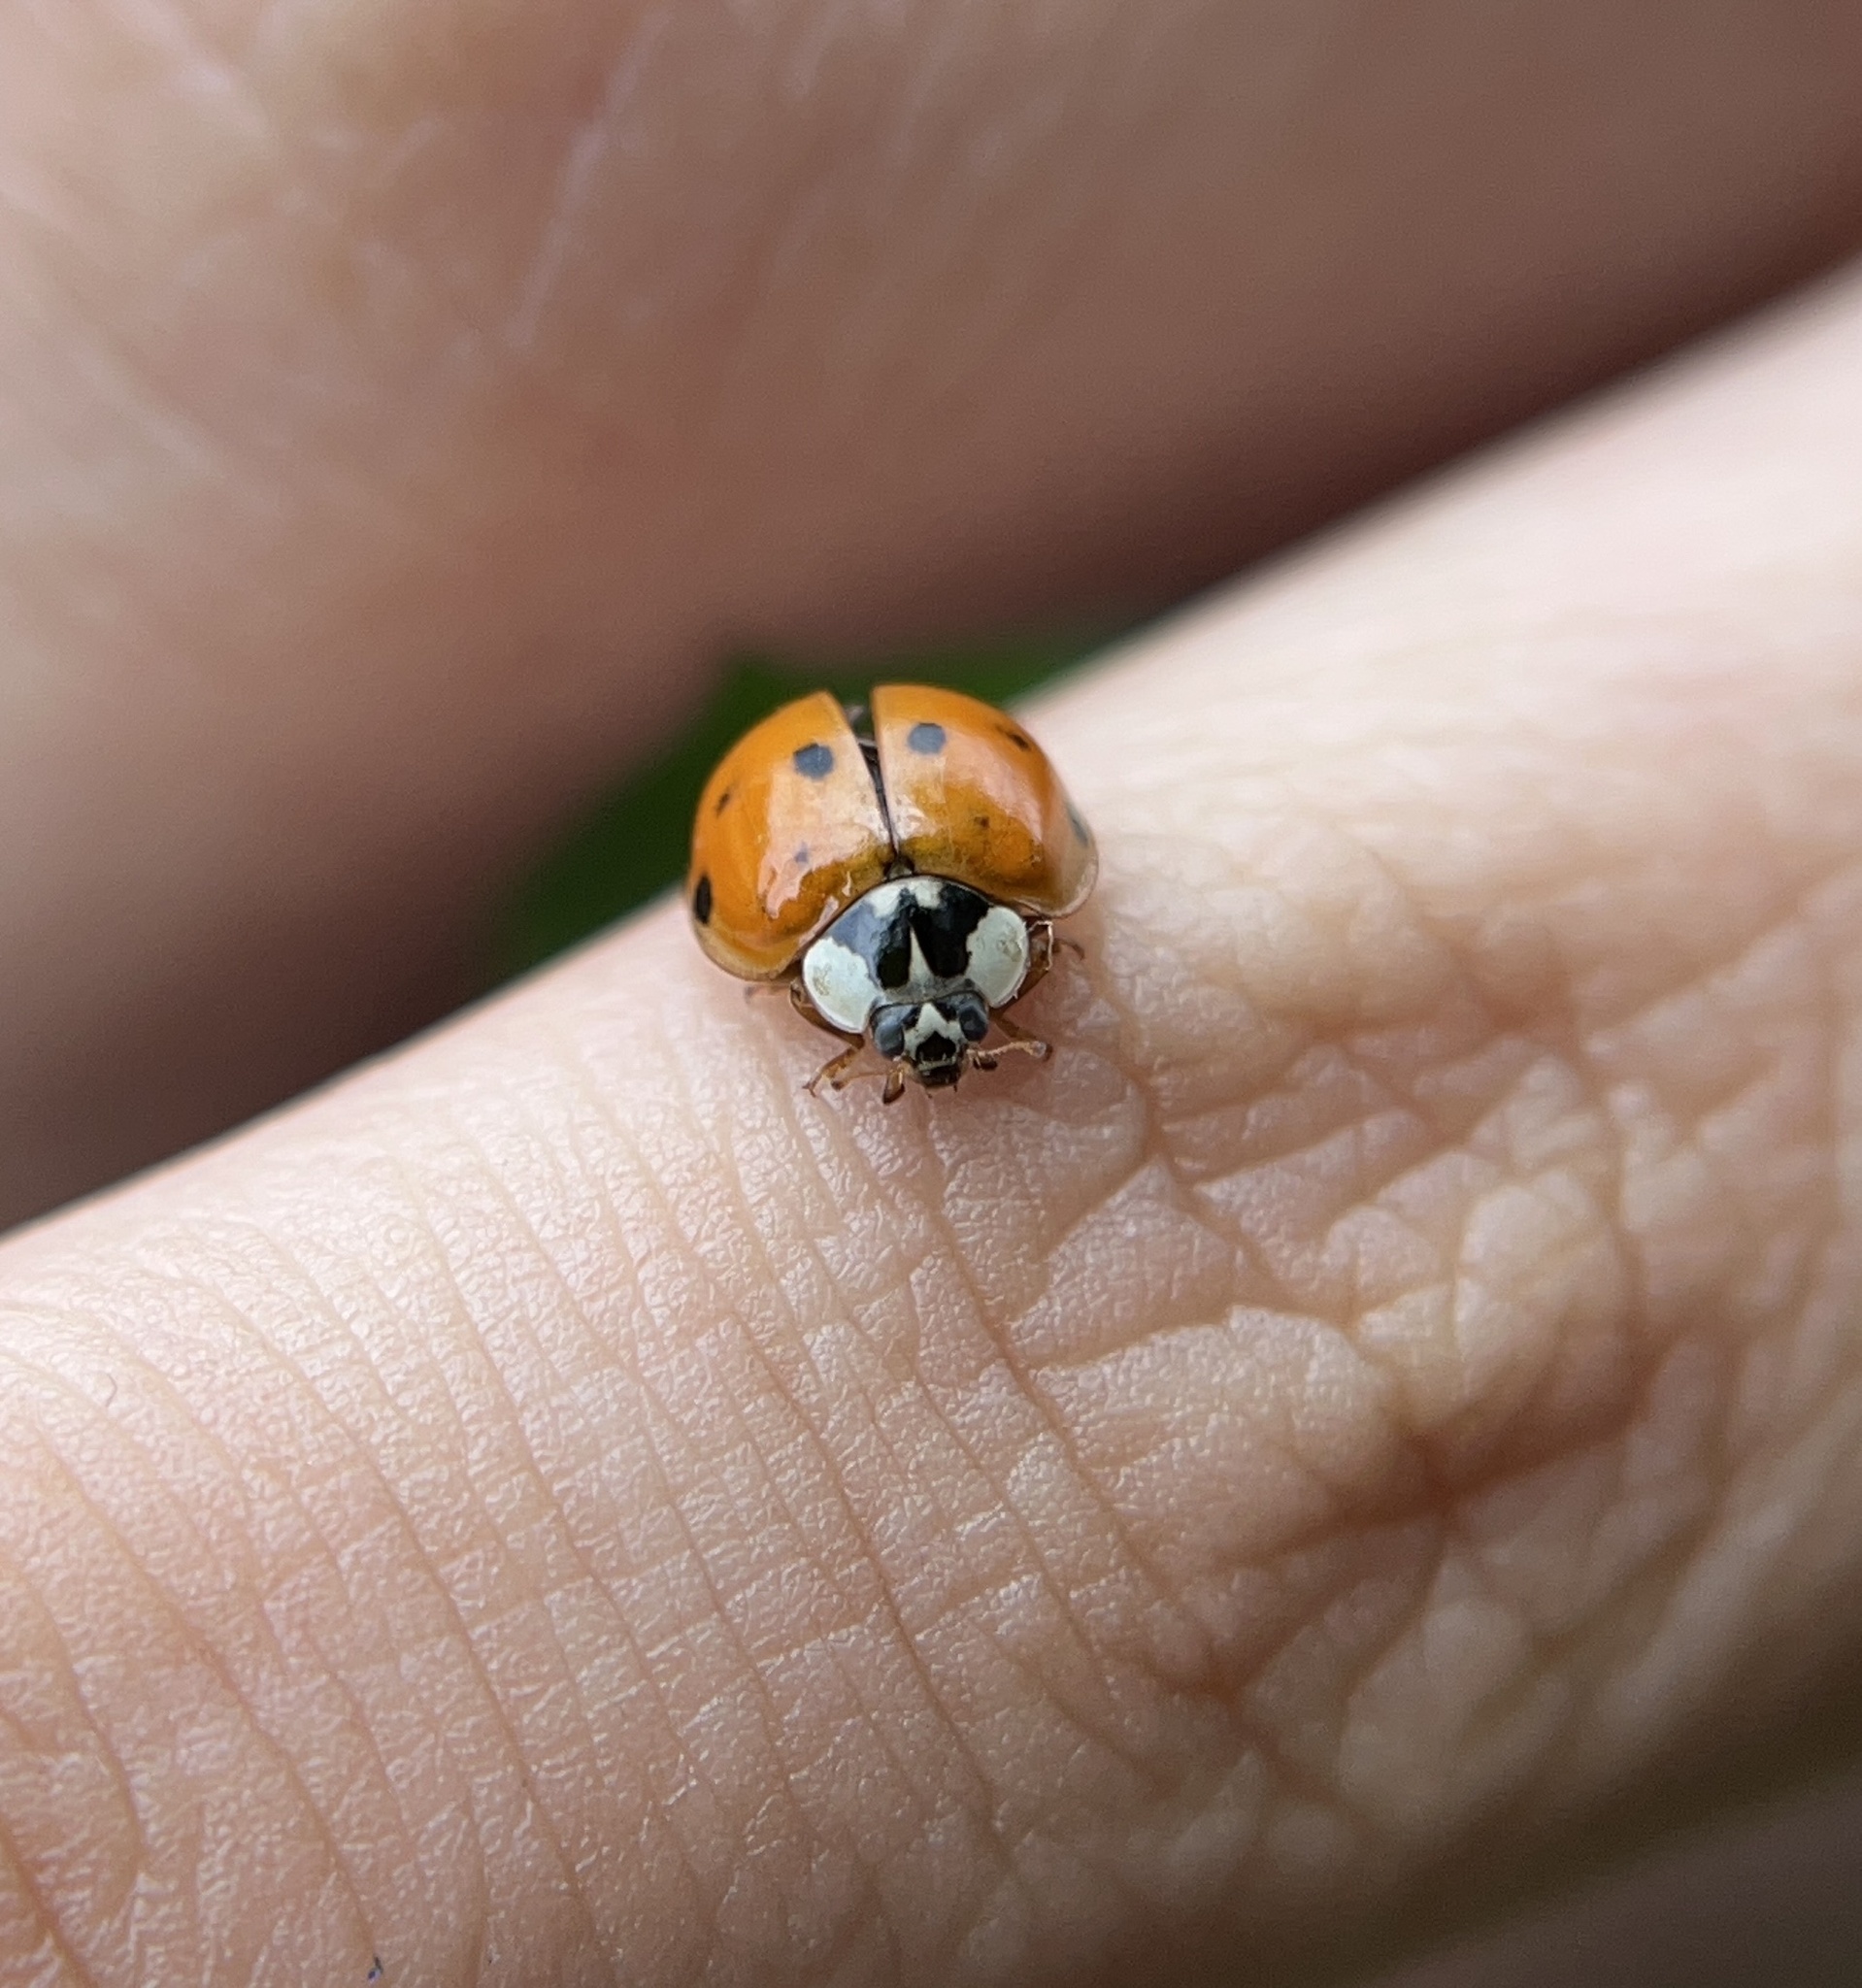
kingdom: Animalia
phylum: Arthropoda
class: Insecta
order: Coleoptera
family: Coccinellidae
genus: Harmonia
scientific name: Harmonia axyridis
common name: Harlequin ladybird
